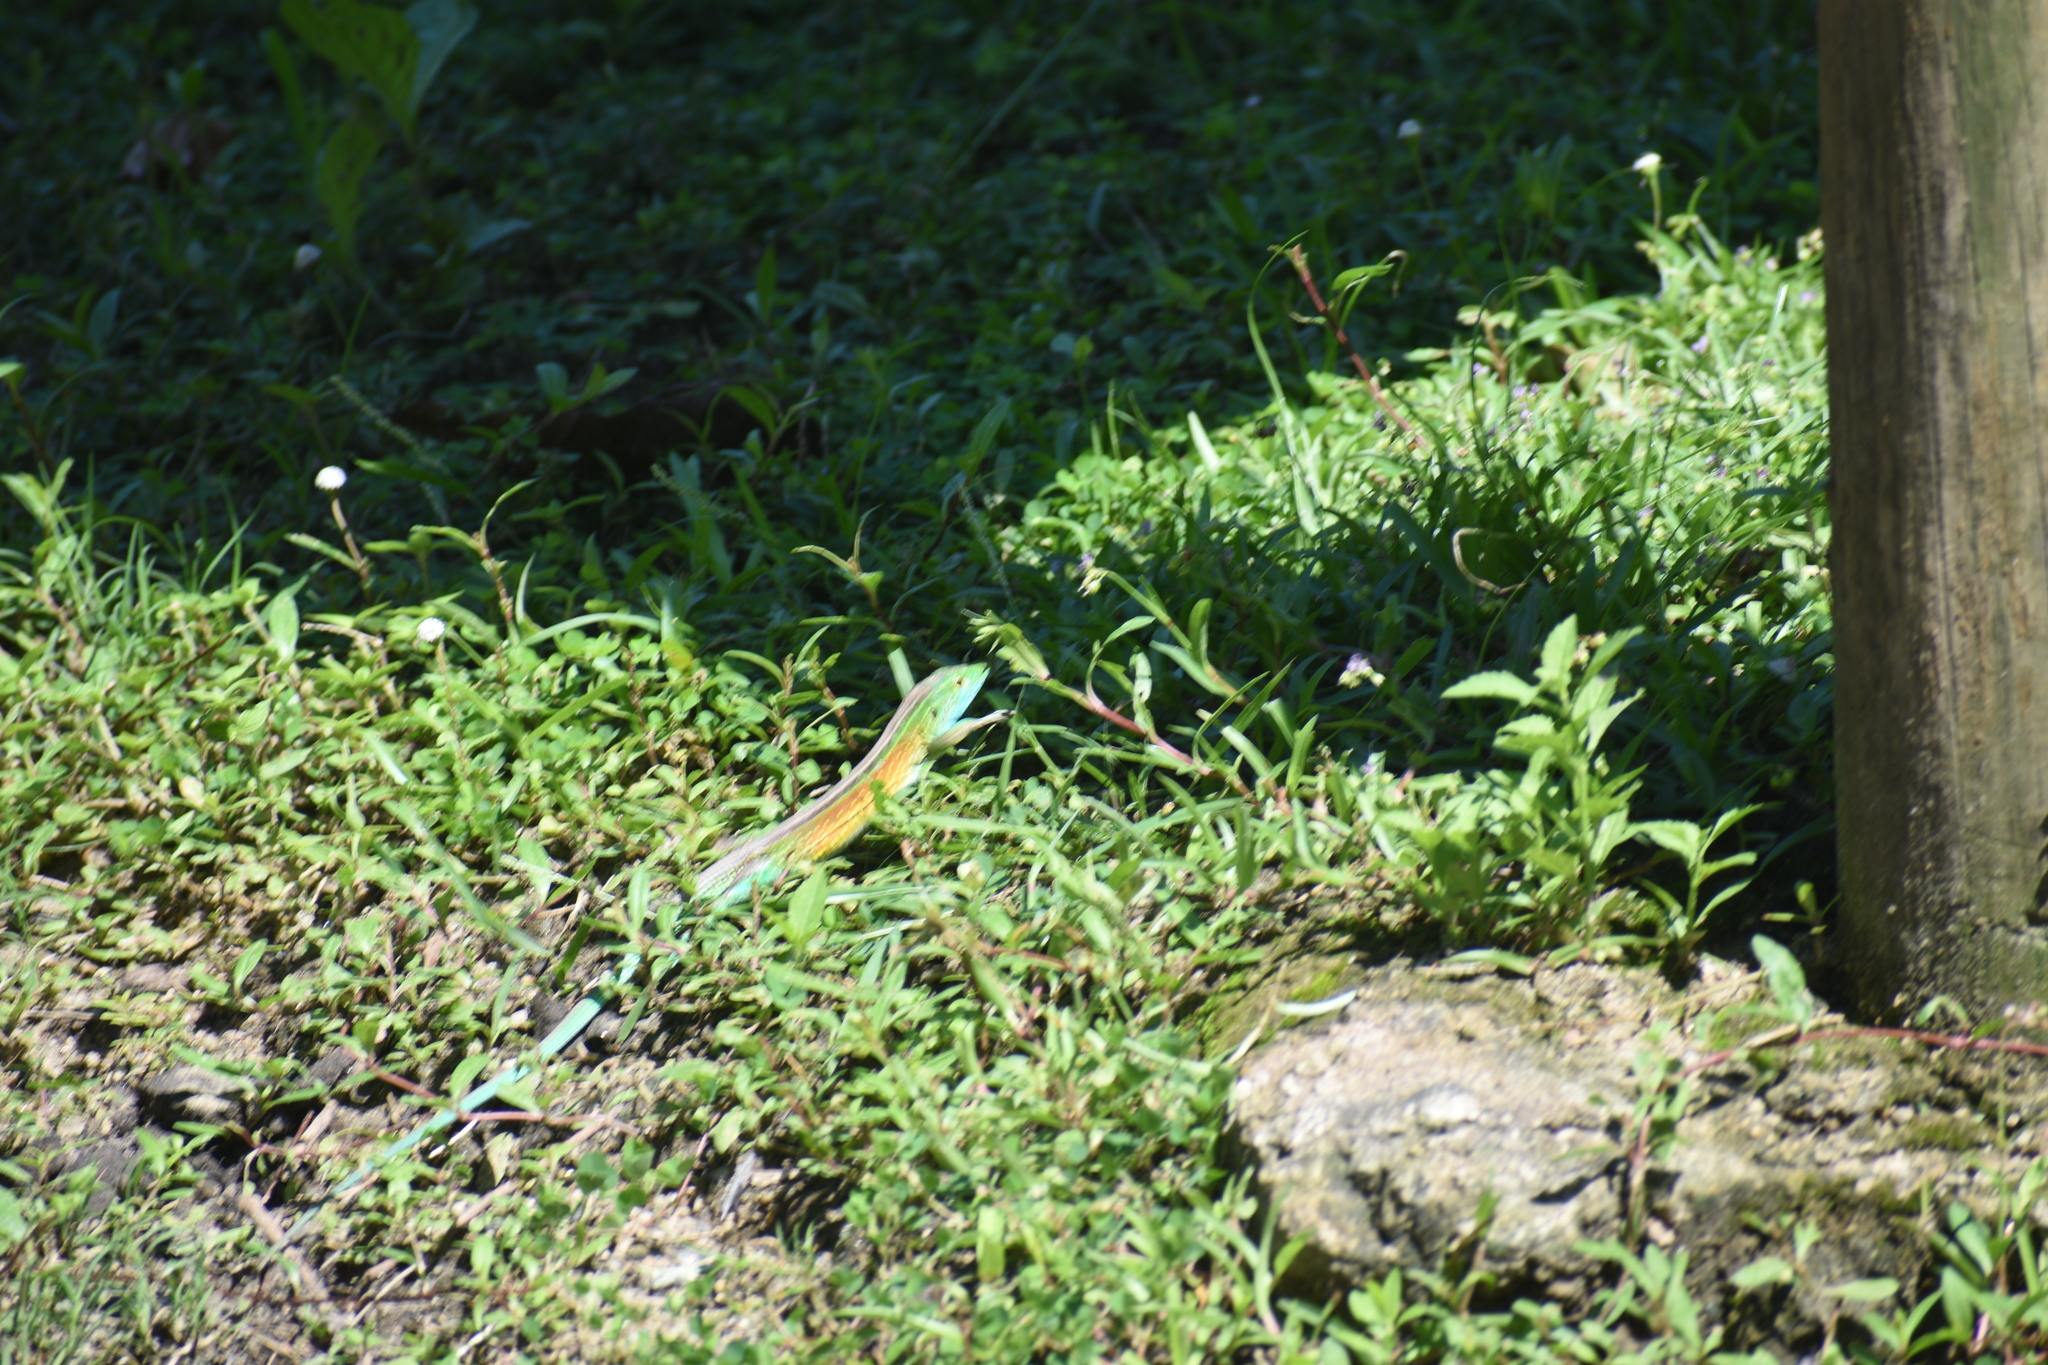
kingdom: Animalia
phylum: Chordata
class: Squamata
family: Teiidae
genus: Cnemidophorus
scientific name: Cnemidophorus gaigei
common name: Gaige’s rainbow lizard
